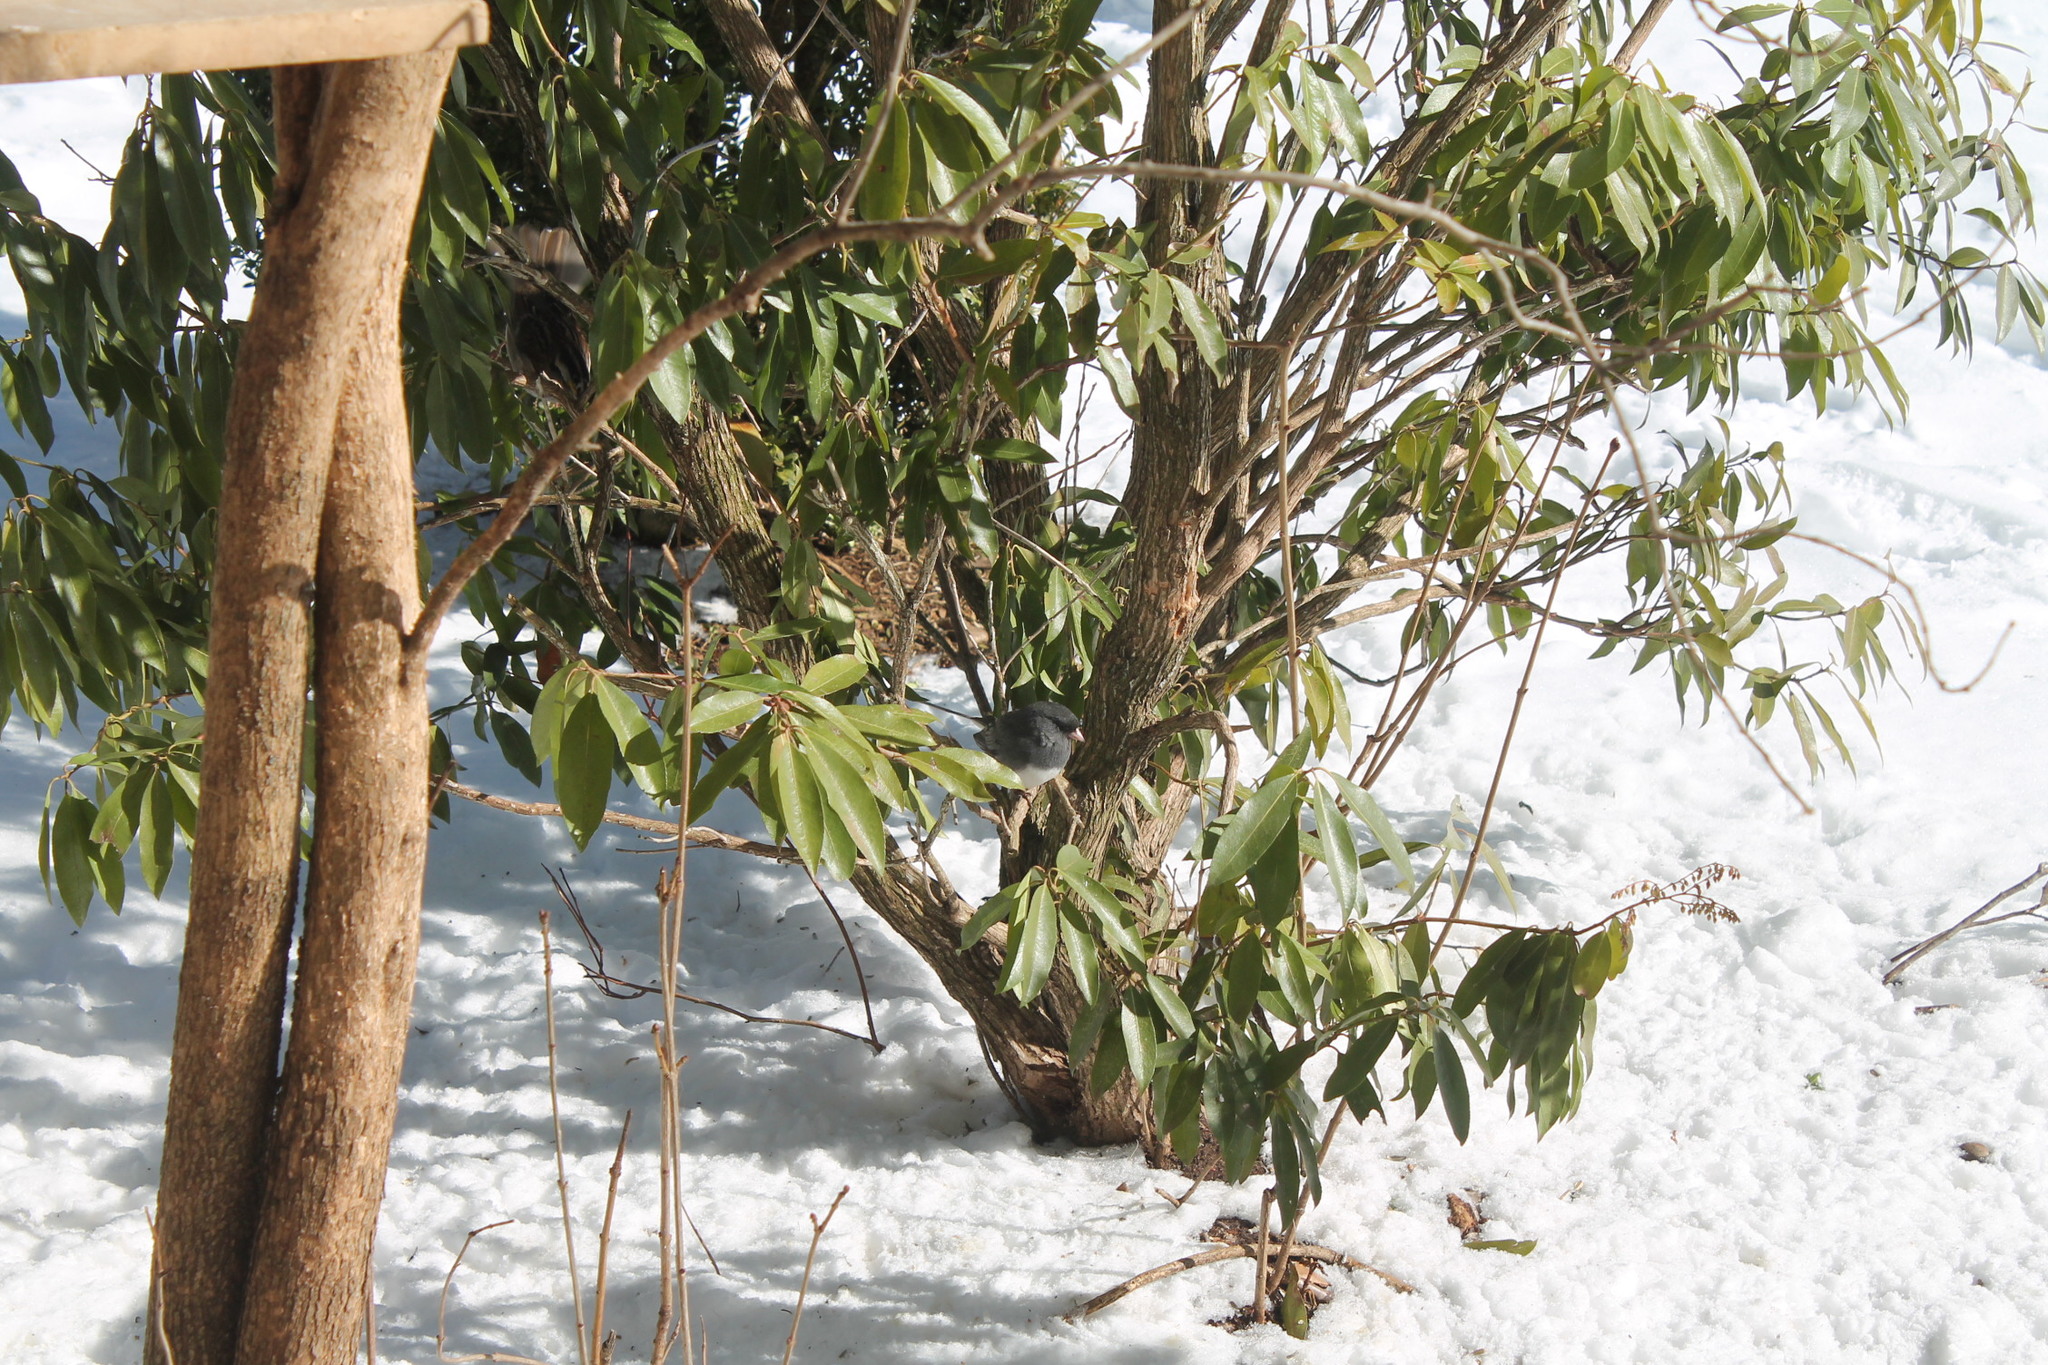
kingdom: Animalia
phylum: Chordata
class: Aves
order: Passeriformes
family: Passerellidae
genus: Junco
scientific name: Junco hyemalis
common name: Dark-eyed junco
